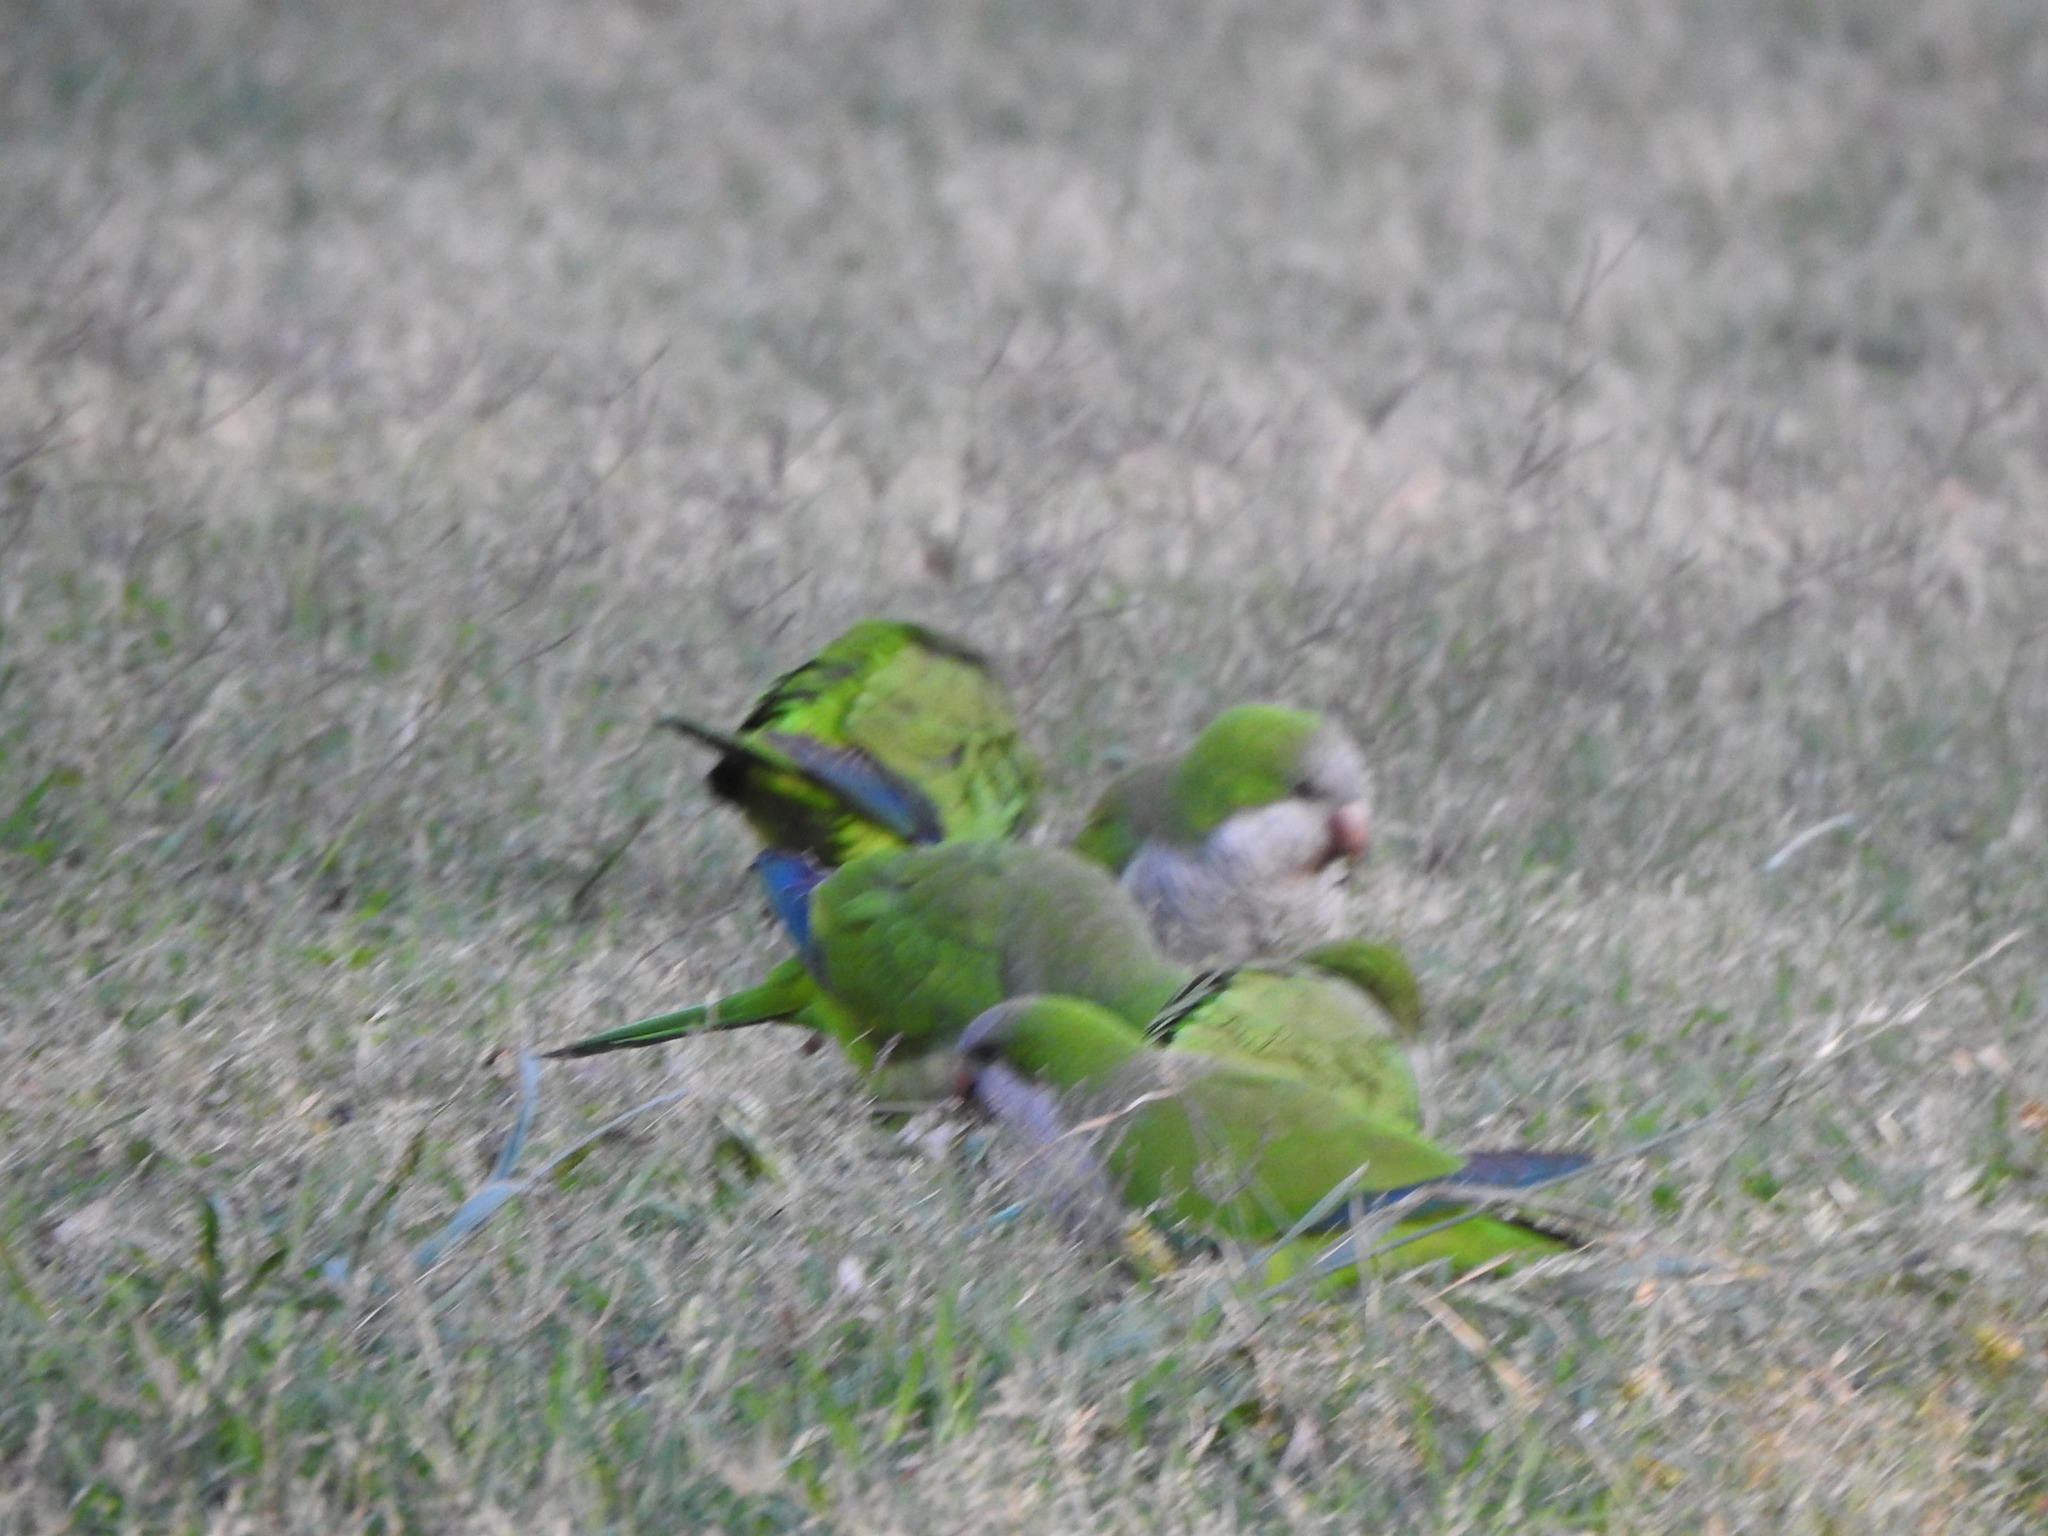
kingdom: Animalia
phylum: Chordata
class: Aves
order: Psittaciformes
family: Psittacidae
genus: Myiopsitta
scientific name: Myiopsitta monachus
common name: Monk parakeet
